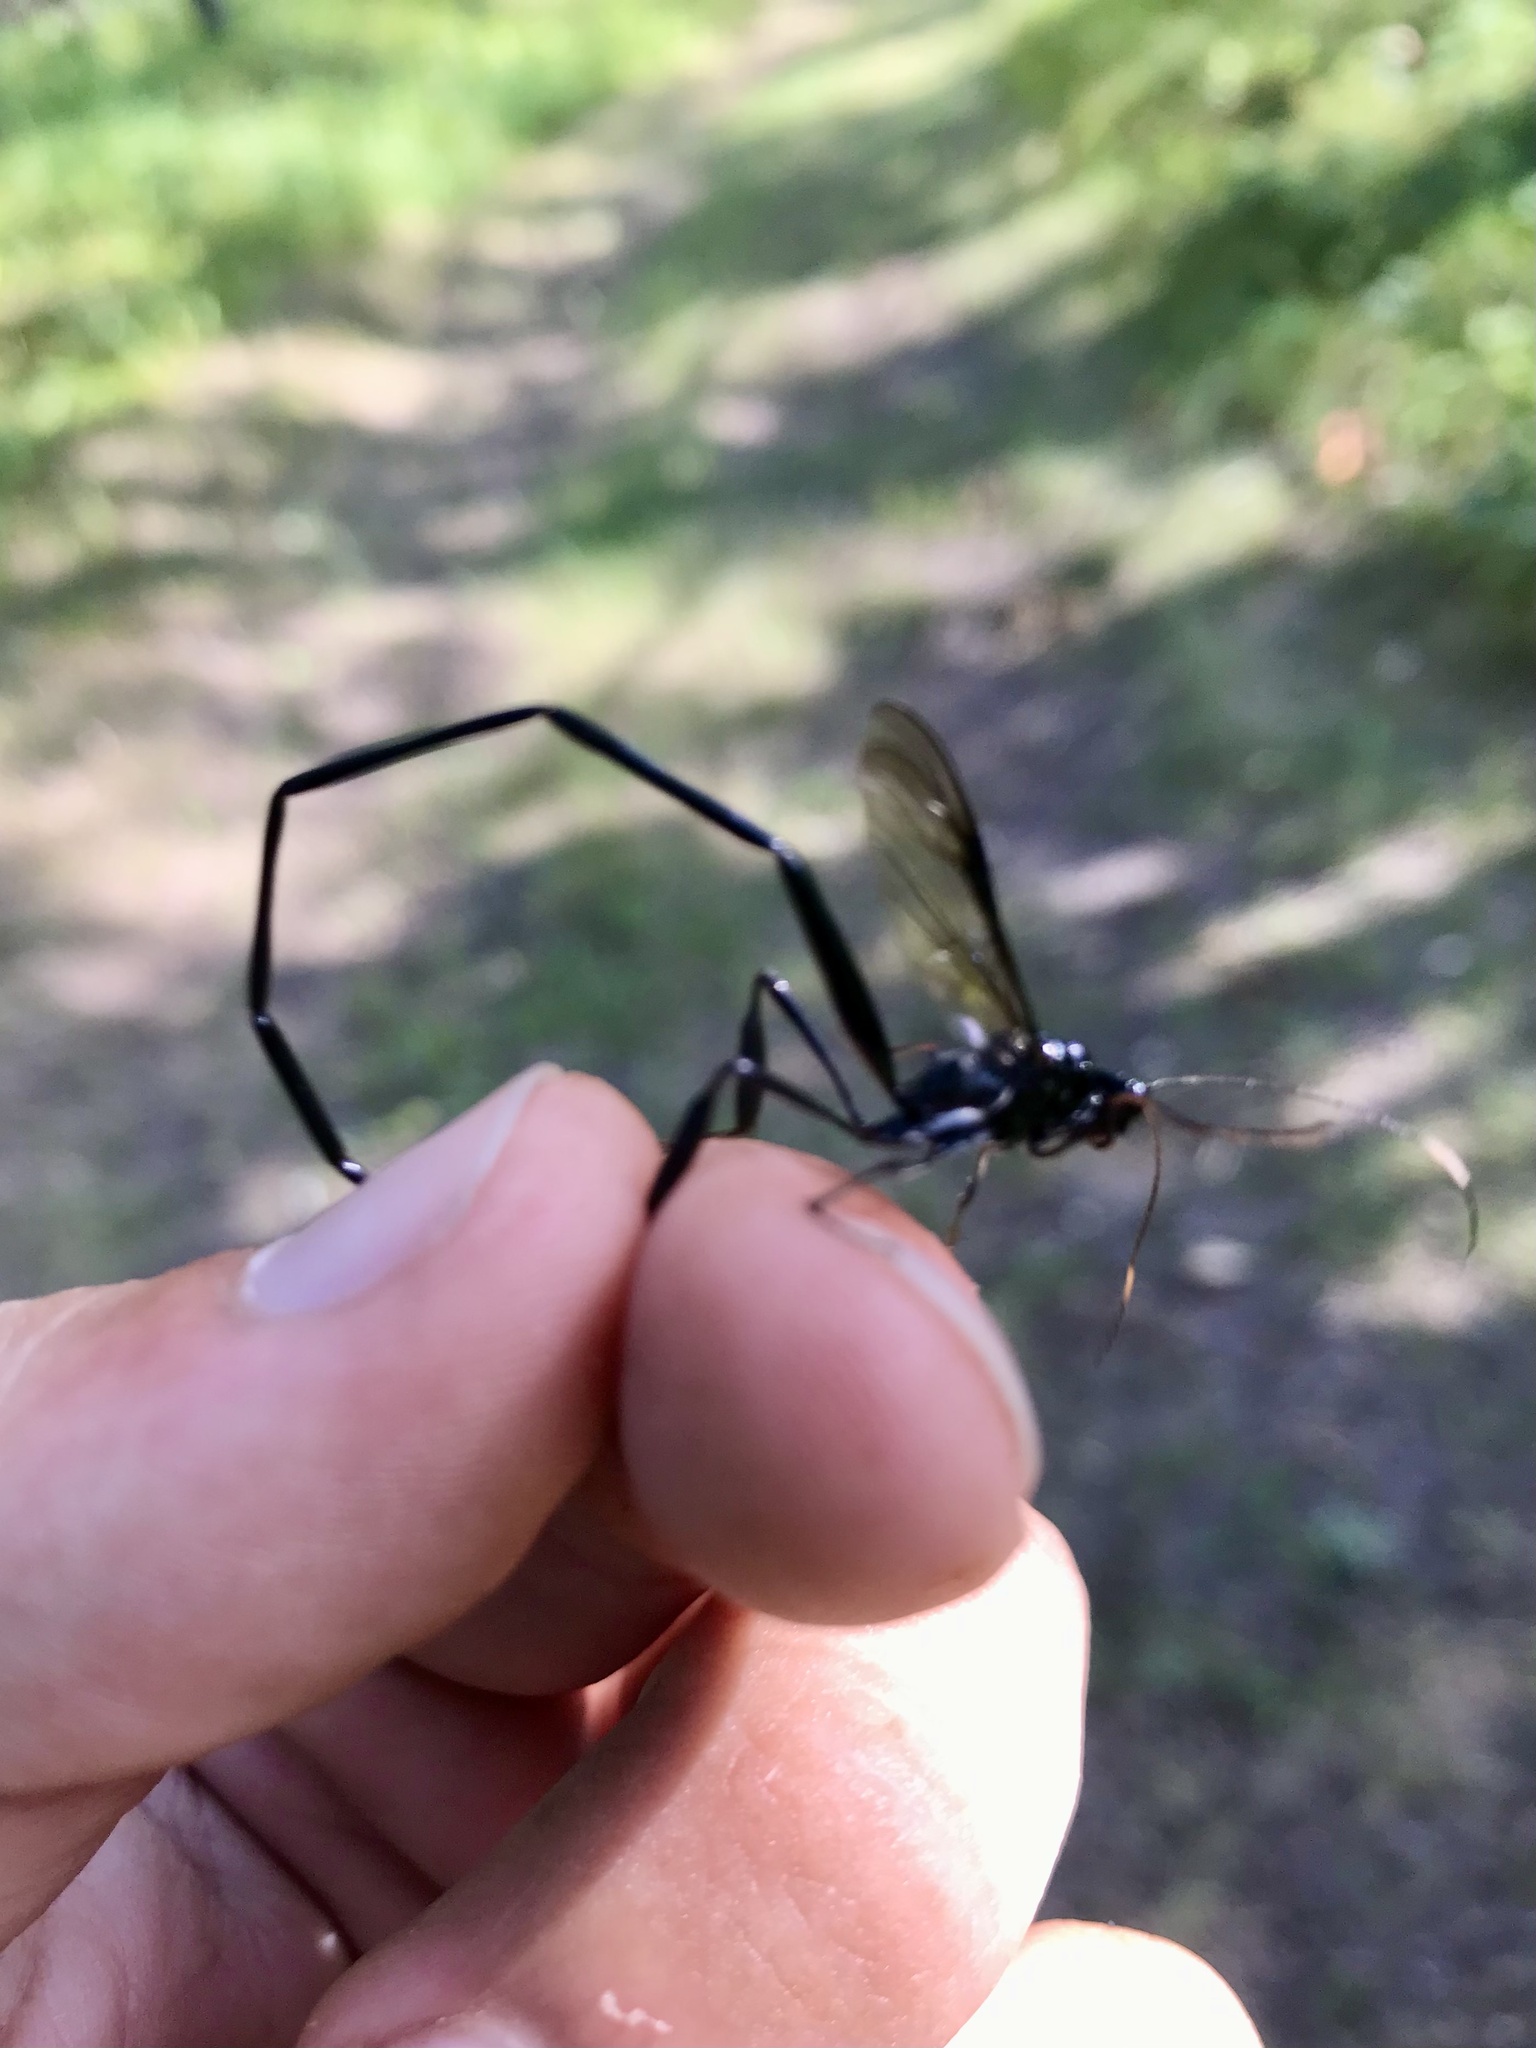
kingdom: Animalia
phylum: Arthropoda
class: Insecta
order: Hymenoptera
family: Pelecinidae
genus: Pelecinus
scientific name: Pelecinus polyturator
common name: American pelecinid wasp
